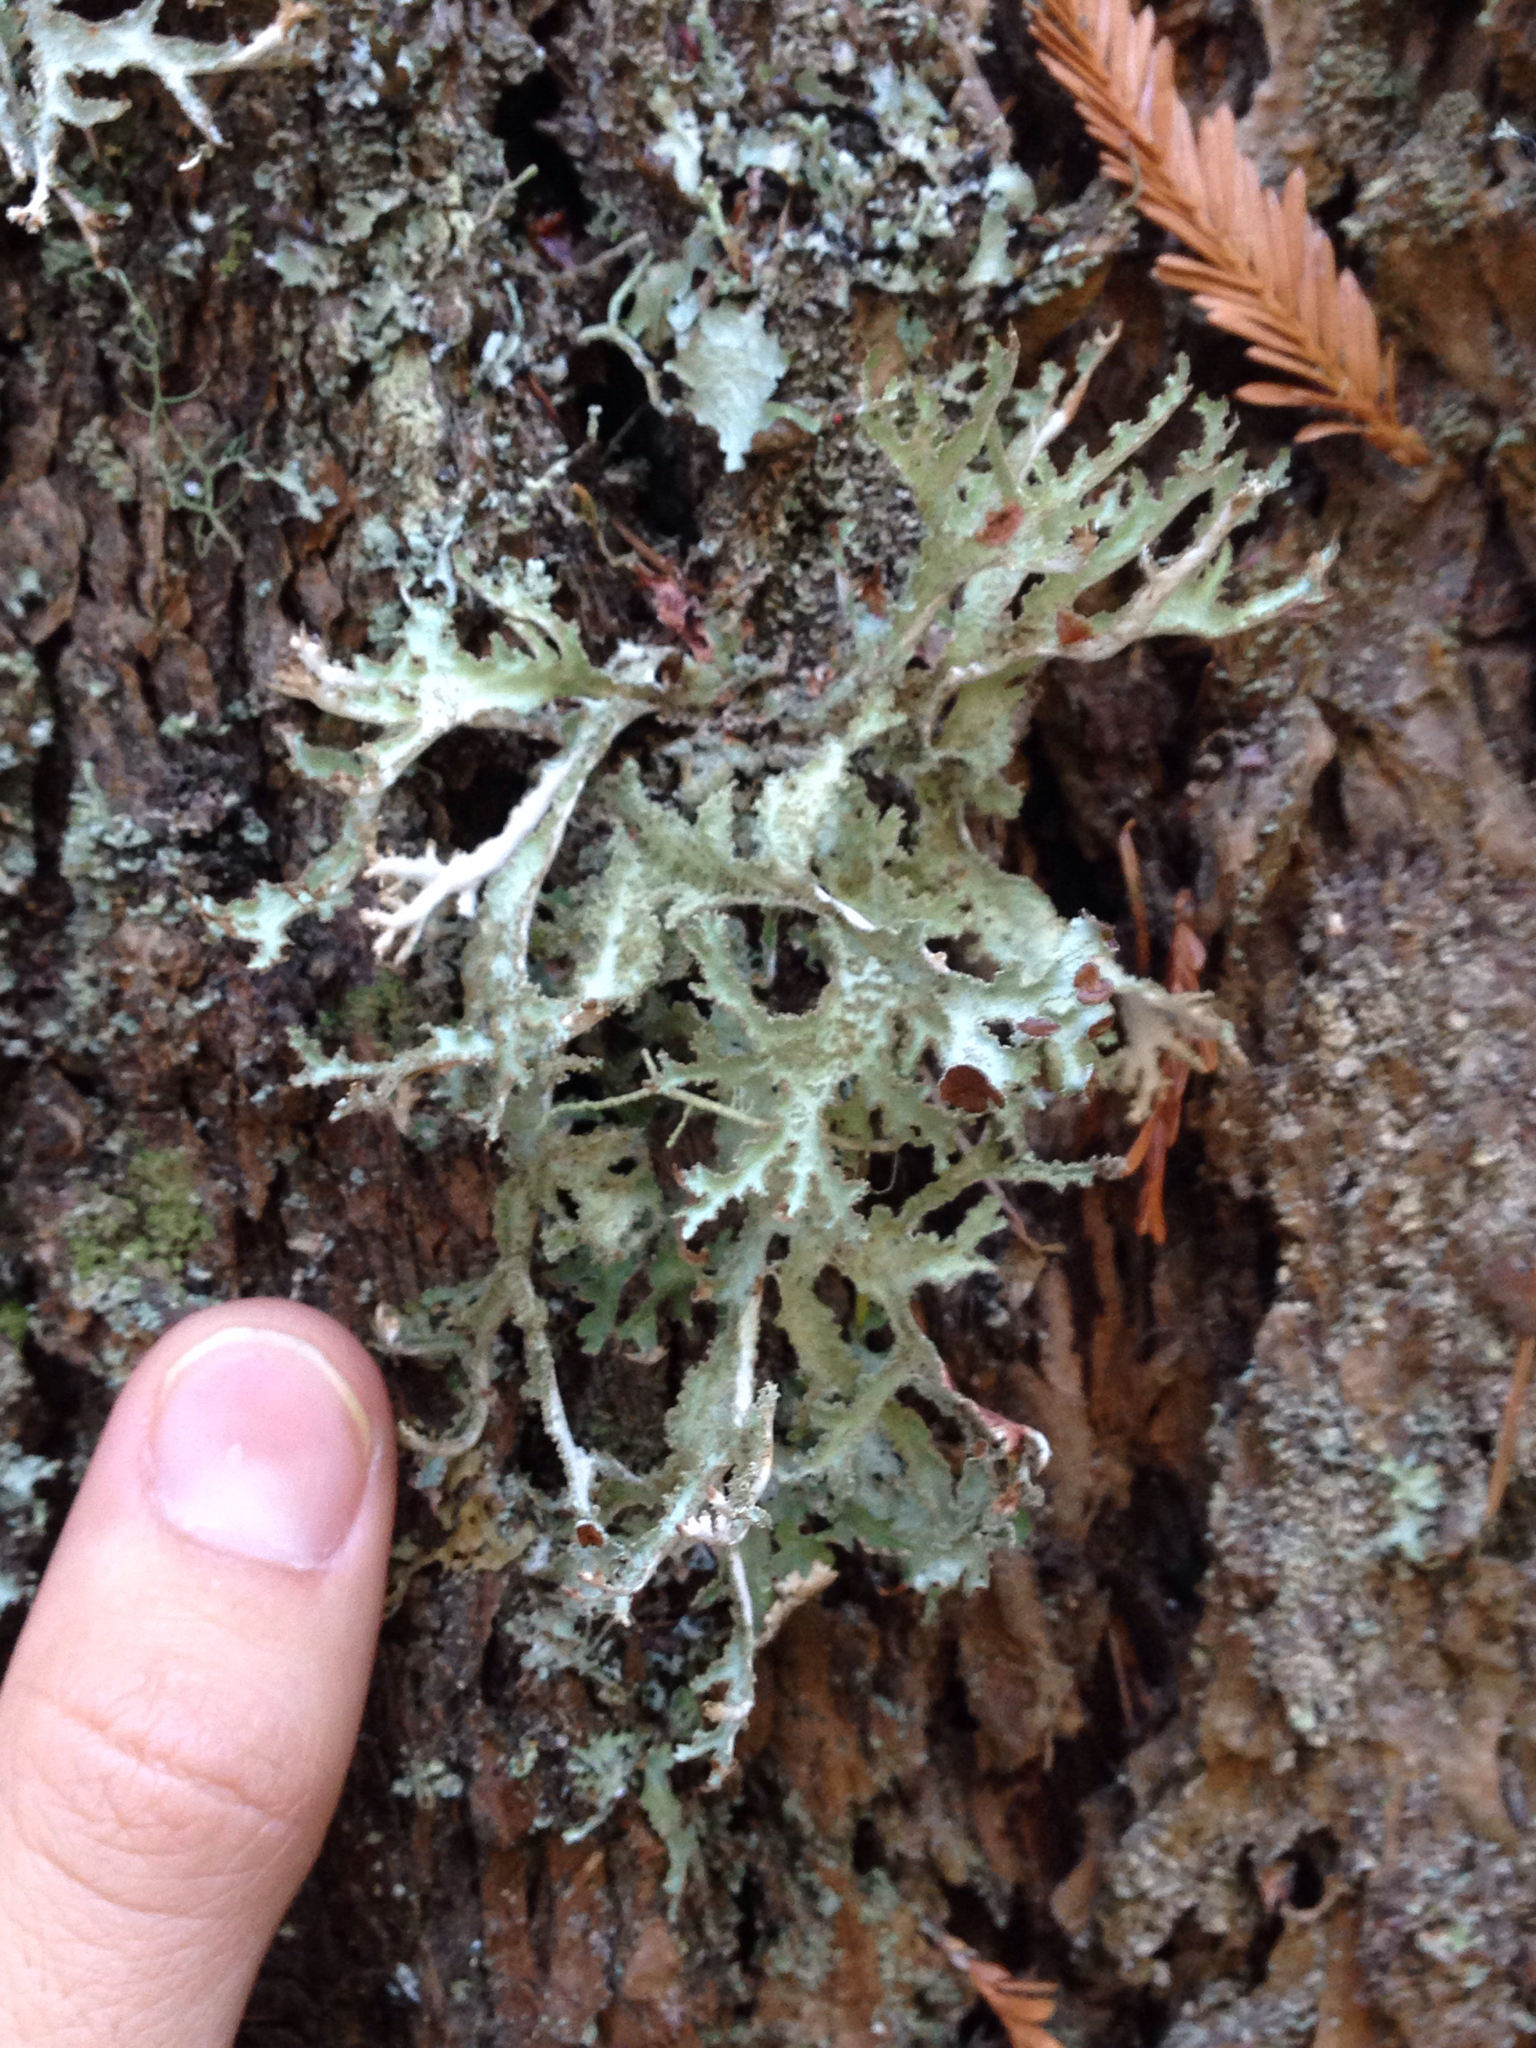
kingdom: Fungi
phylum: Ascomycota
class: Lecanoromycetes
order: Lecanorales
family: Parmeliaceae
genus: Platismatia
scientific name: Platismatia herrei
